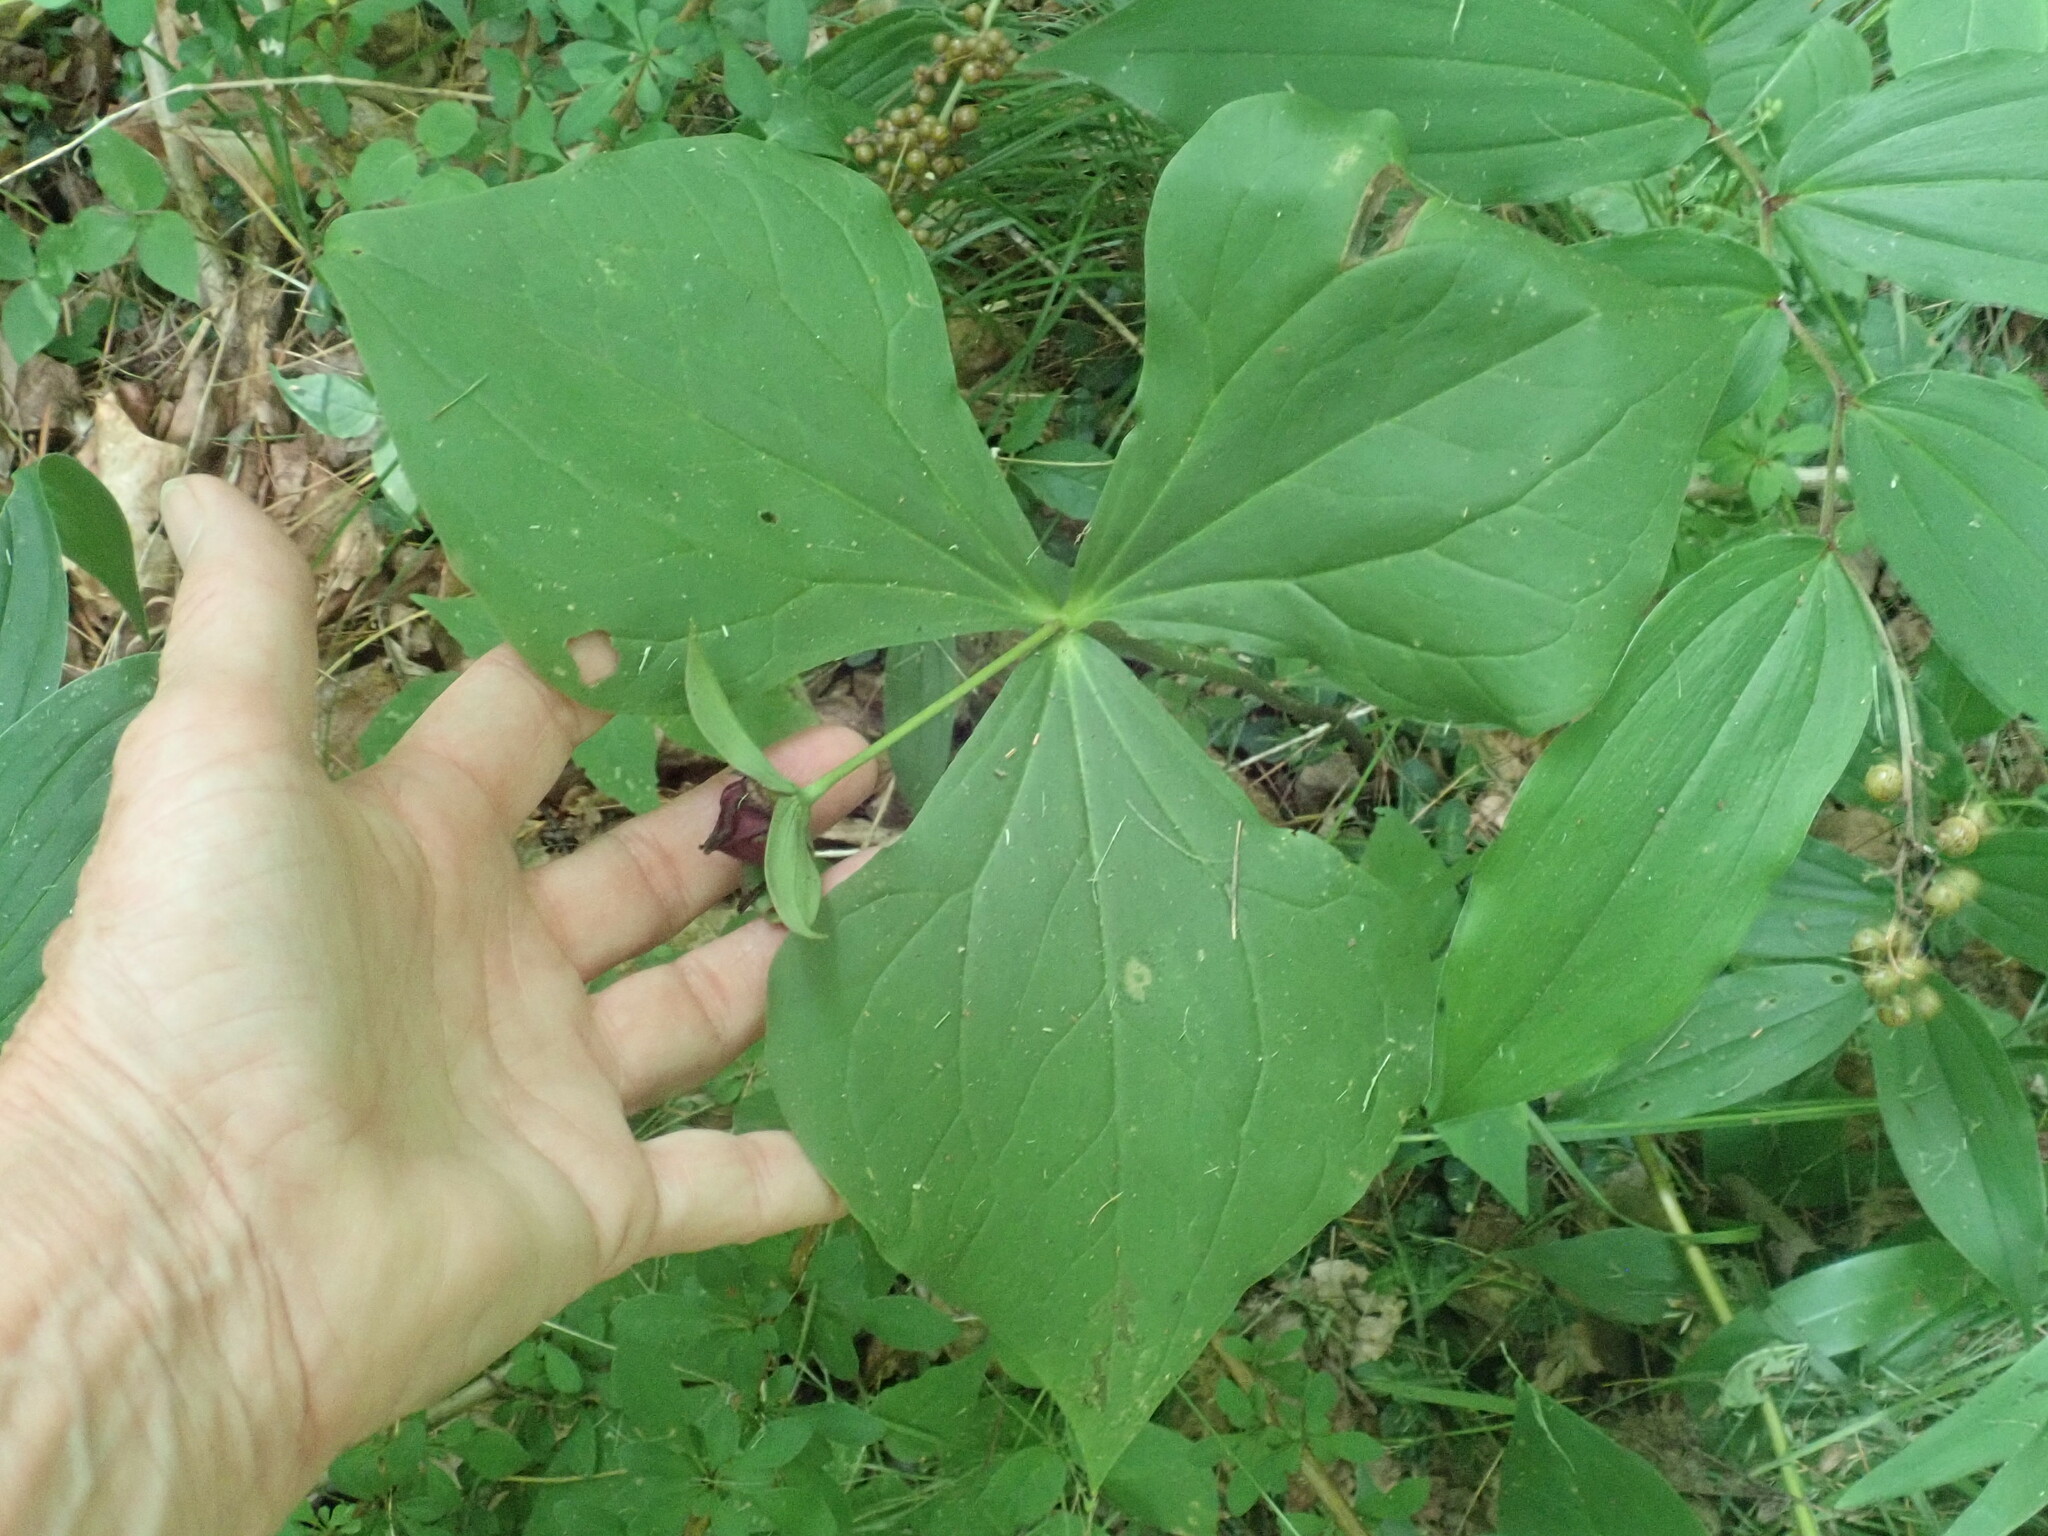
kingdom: Plantae
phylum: Tracheophyta
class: Liliopsida
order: Liliales
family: Melanthiaceae
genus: Trillium
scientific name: Trillium erectum
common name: Purple trillium
